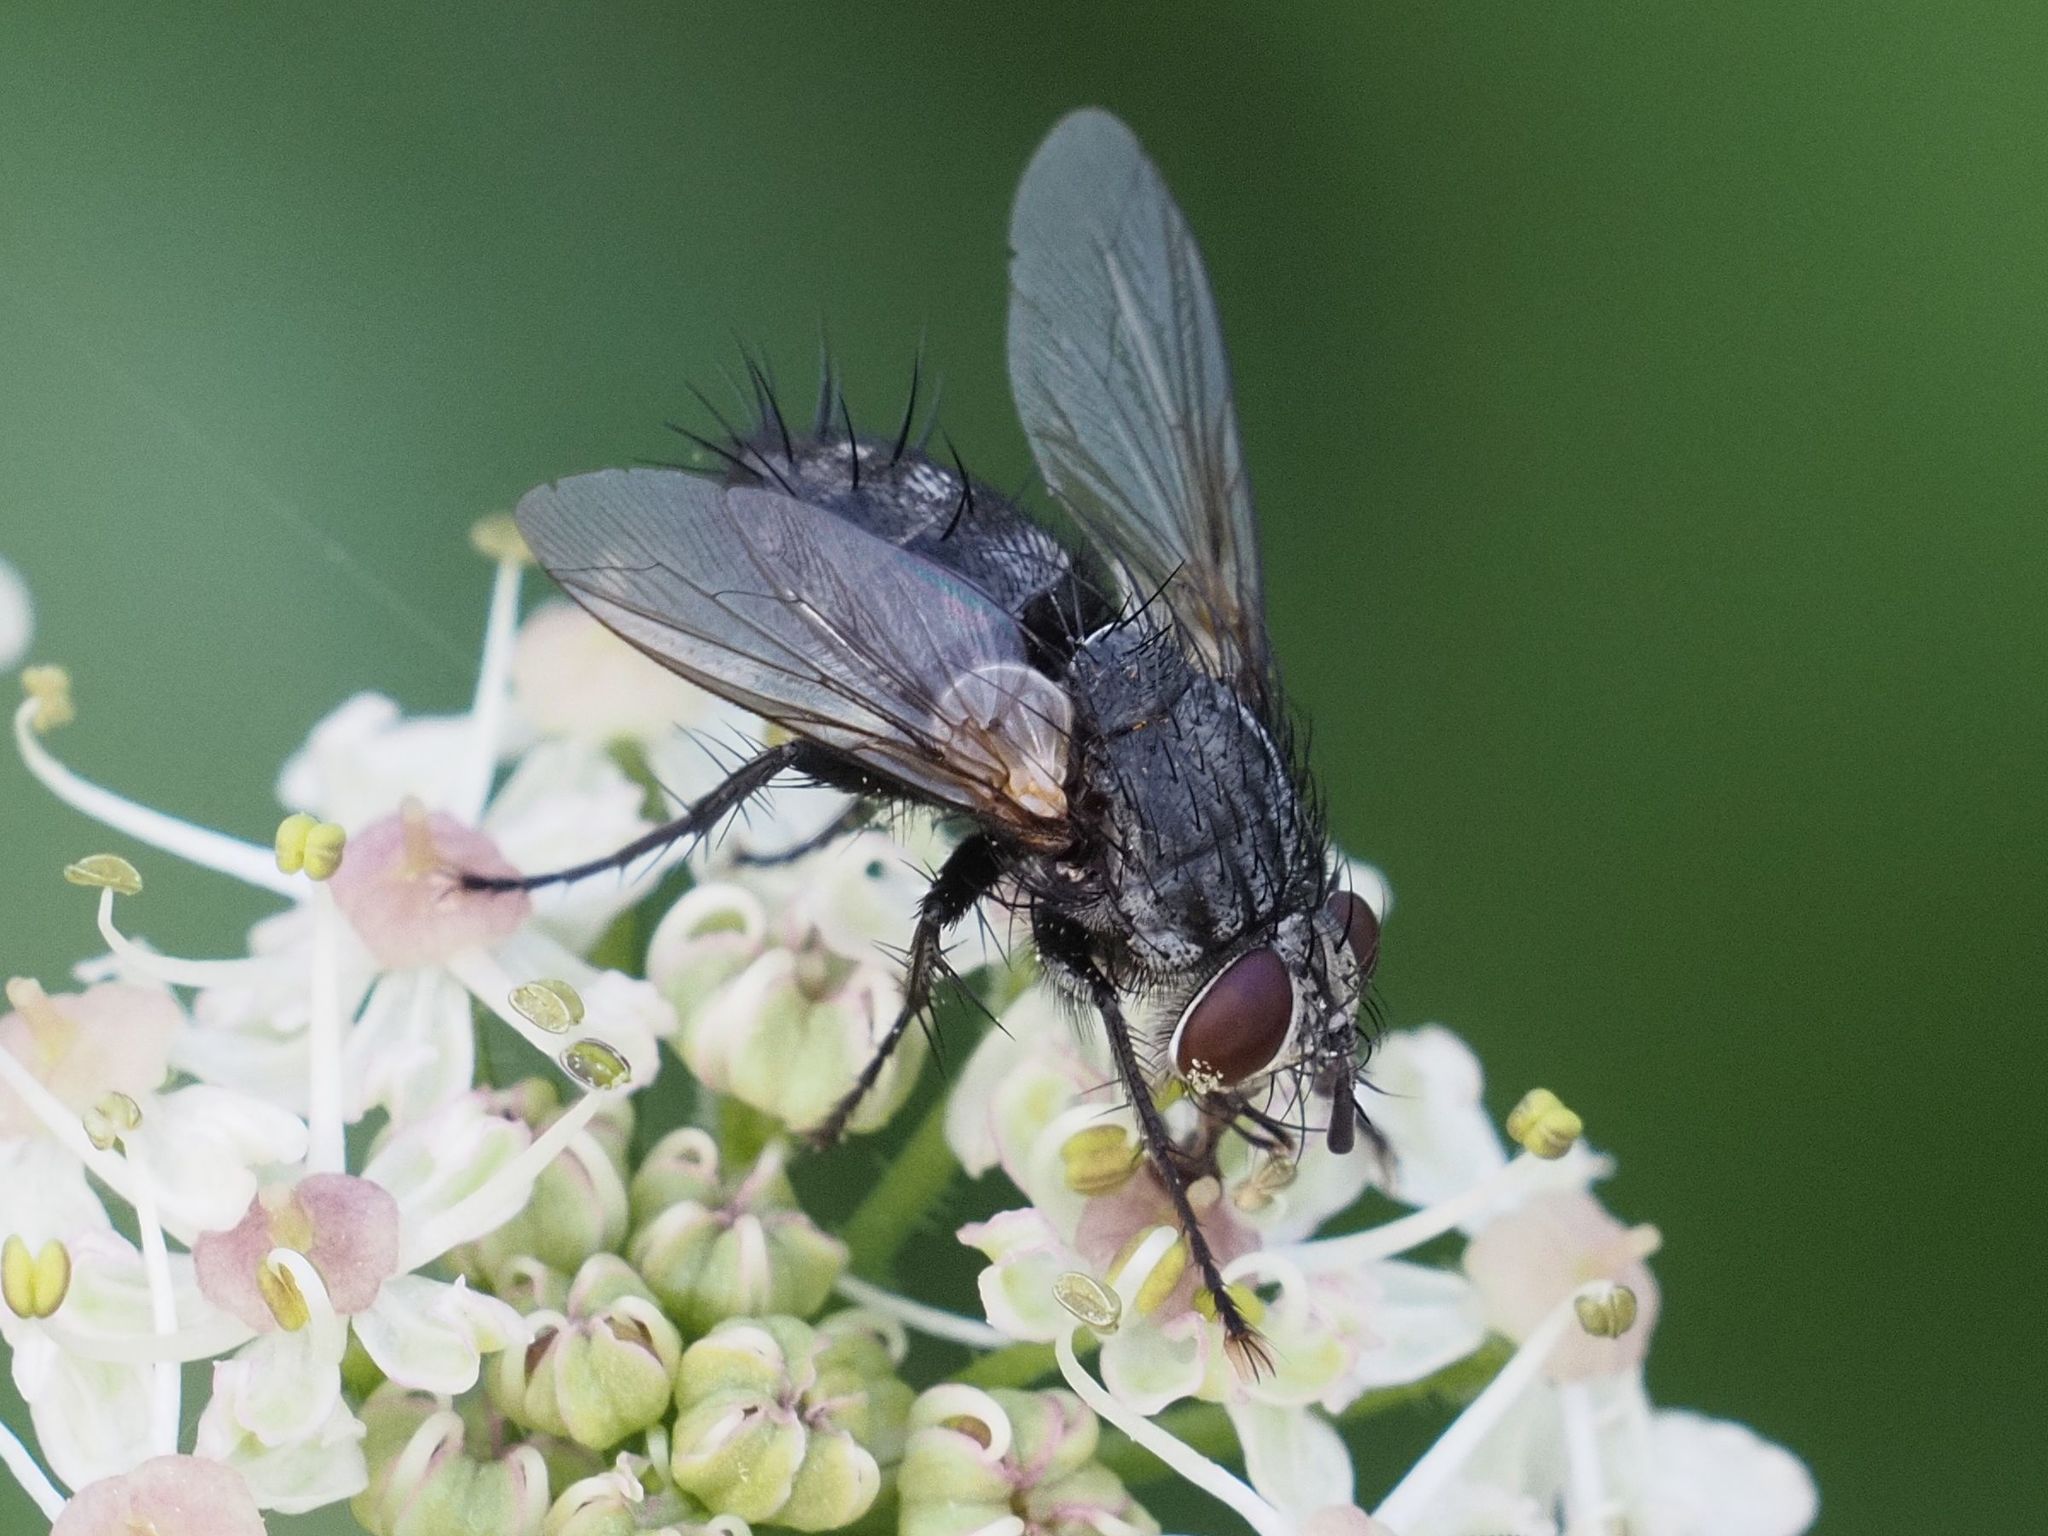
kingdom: Animalia
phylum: Arthropoda
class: Insecta
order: Diptera
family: Tachinidae
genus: Voria
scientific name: Voria ruralis
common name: Parasitic fly
